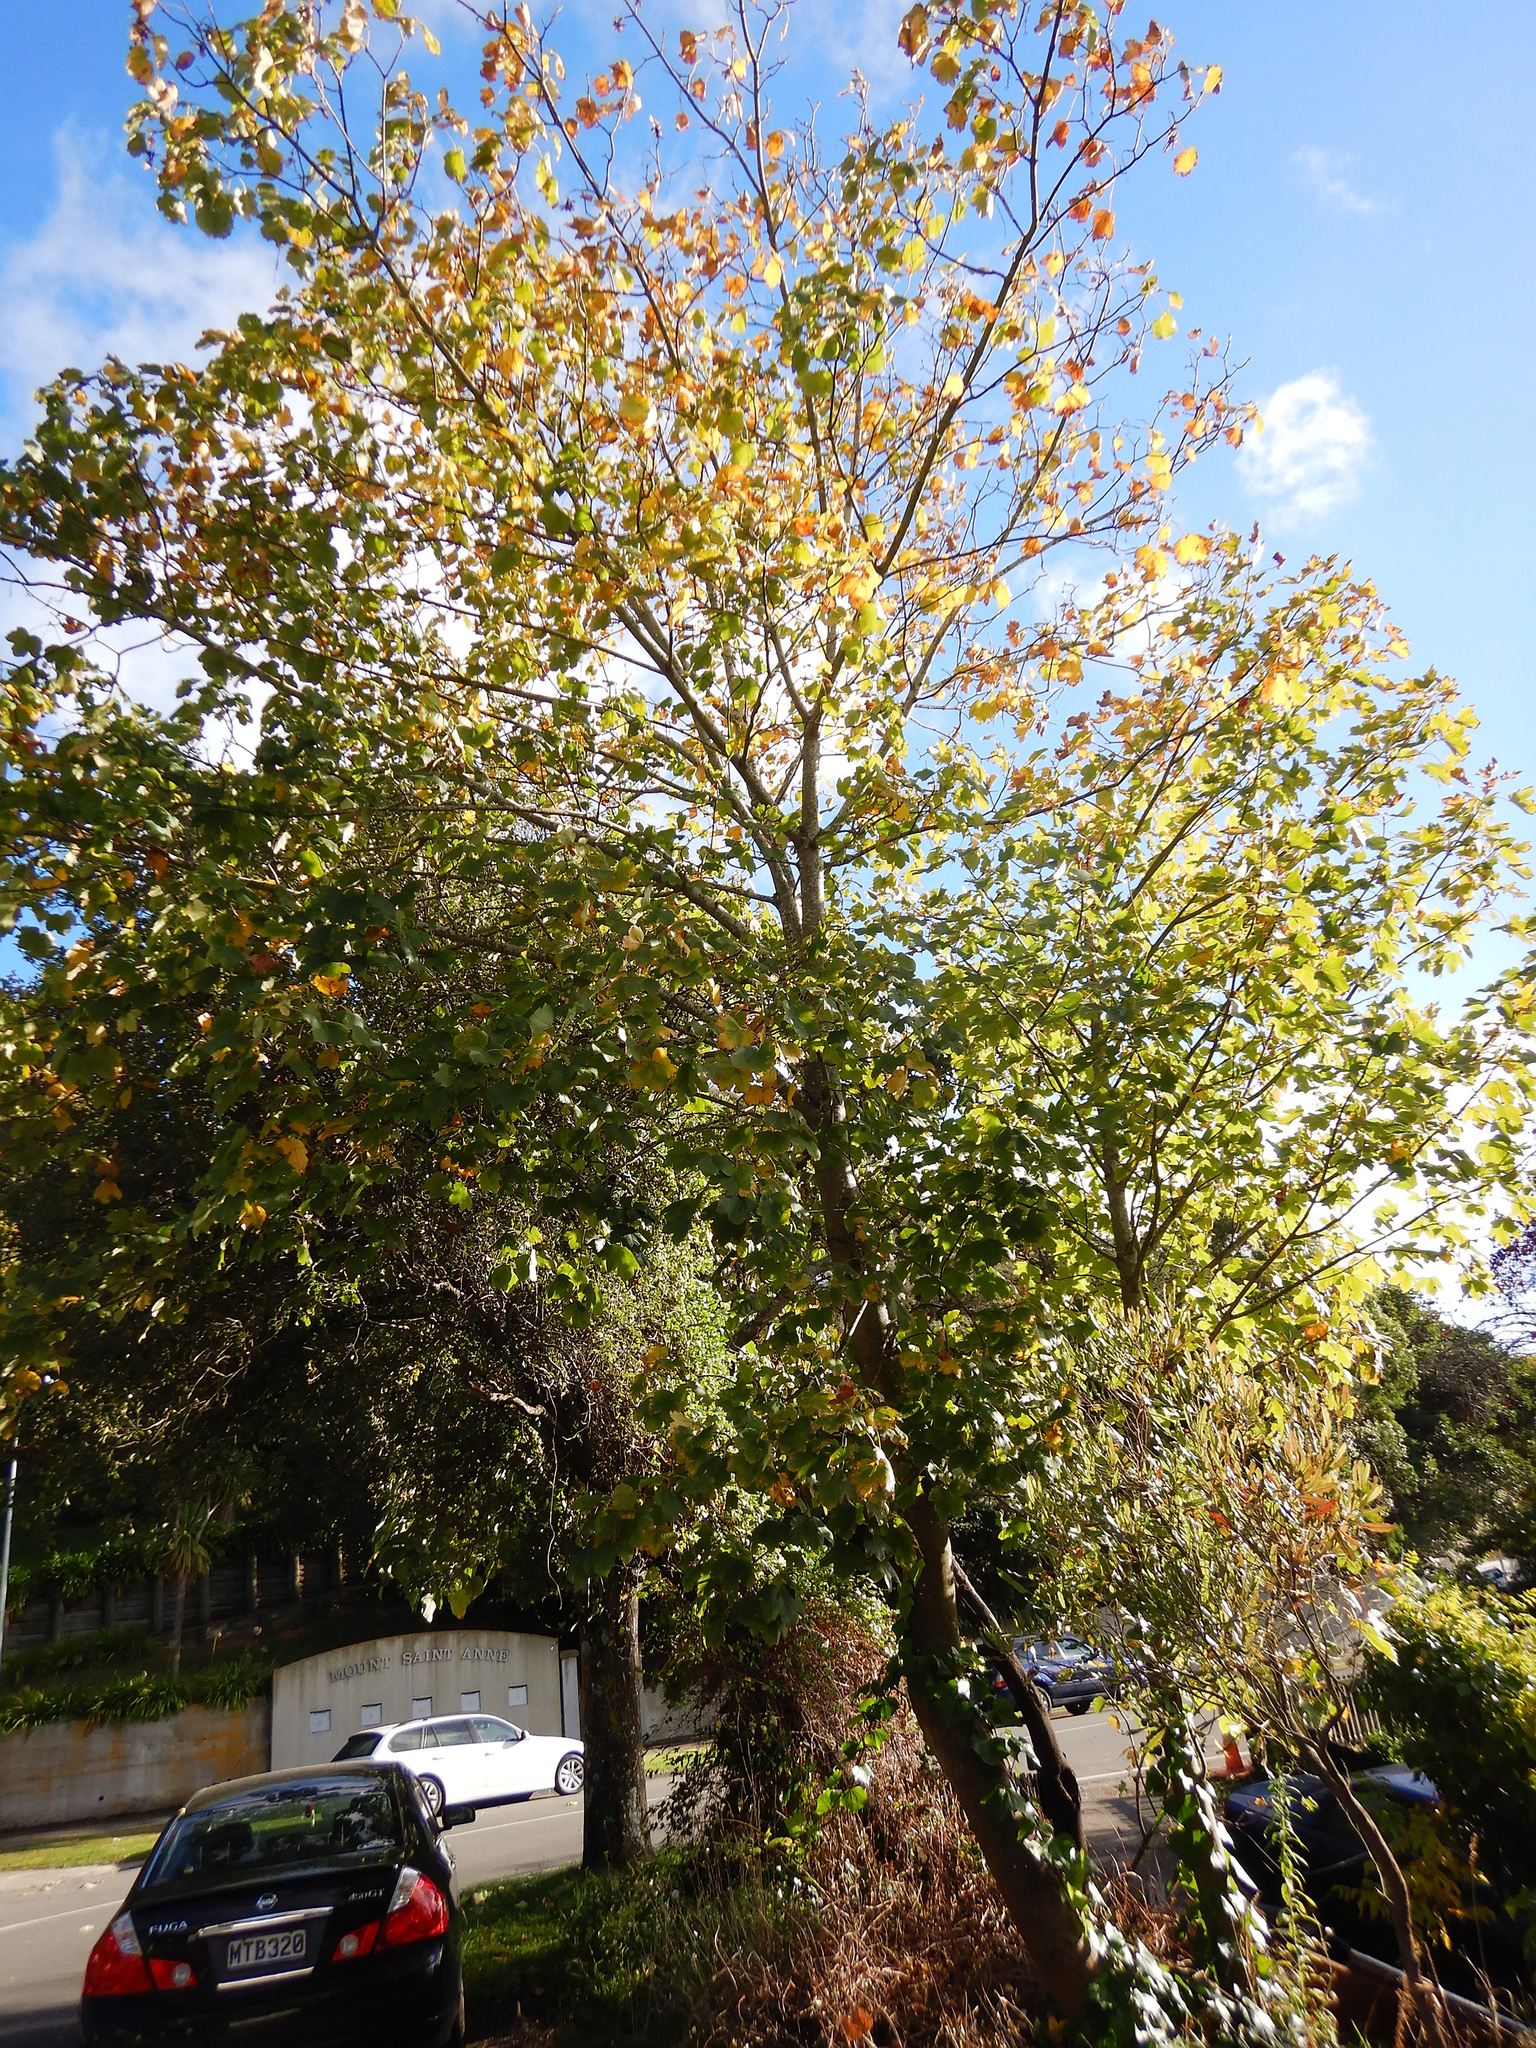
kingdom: Plantae
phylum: Tracheophyta
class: Magnoliopsida
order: Sapindales
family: Sapindaceae
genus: Acer
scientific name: Acer pseudoplatanus
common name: Sycamore
